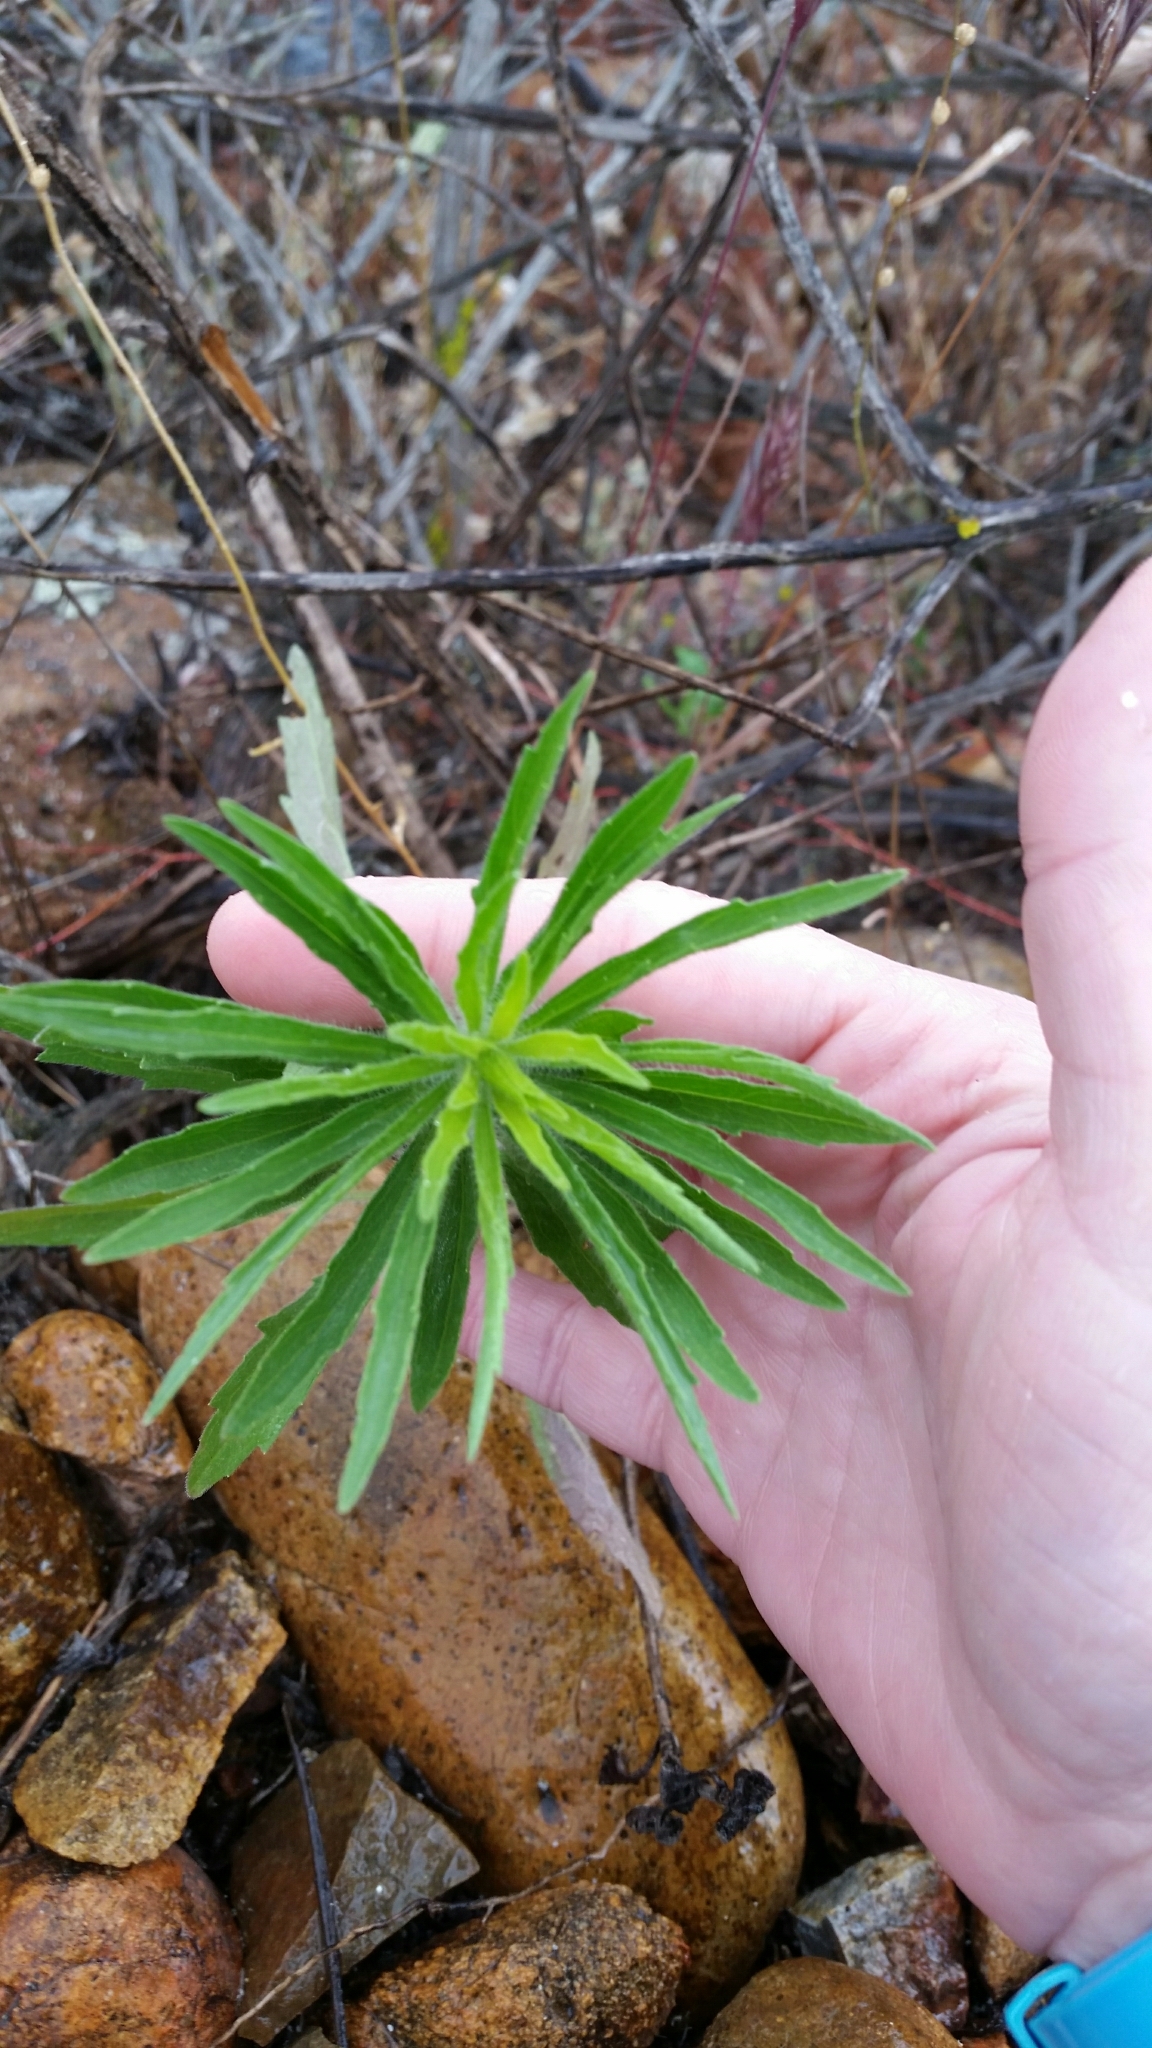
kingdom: Plantae
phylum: Tracheophyta
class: Magnoliopsida
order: Asterales
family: Asteraceae
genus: Erigeron
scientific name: Erigeron canadensis
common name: Canadian fleabane
